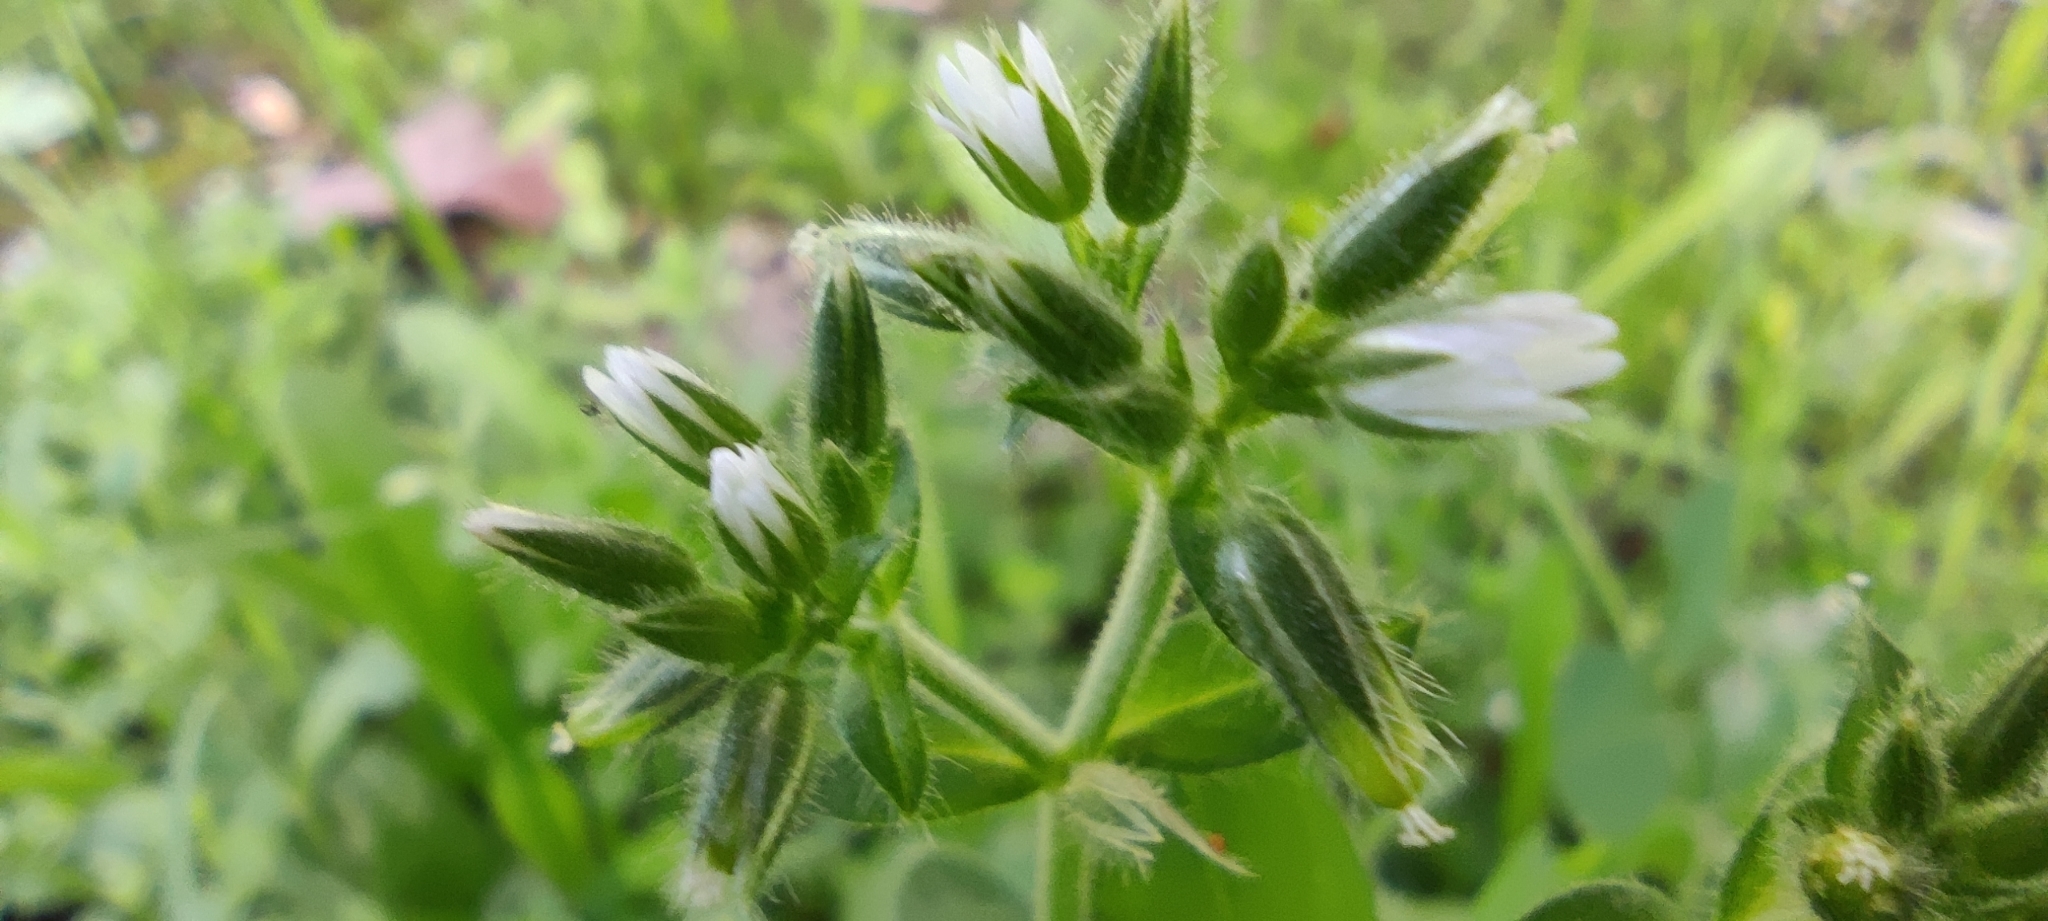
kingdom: Plantae
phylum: Tracheophyta
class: Magnoliopsida
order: Caryophyllales
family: Caryophyllaceae
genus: Cerastium
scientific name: Cerastium glomeratum
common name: Sticky chickweed
